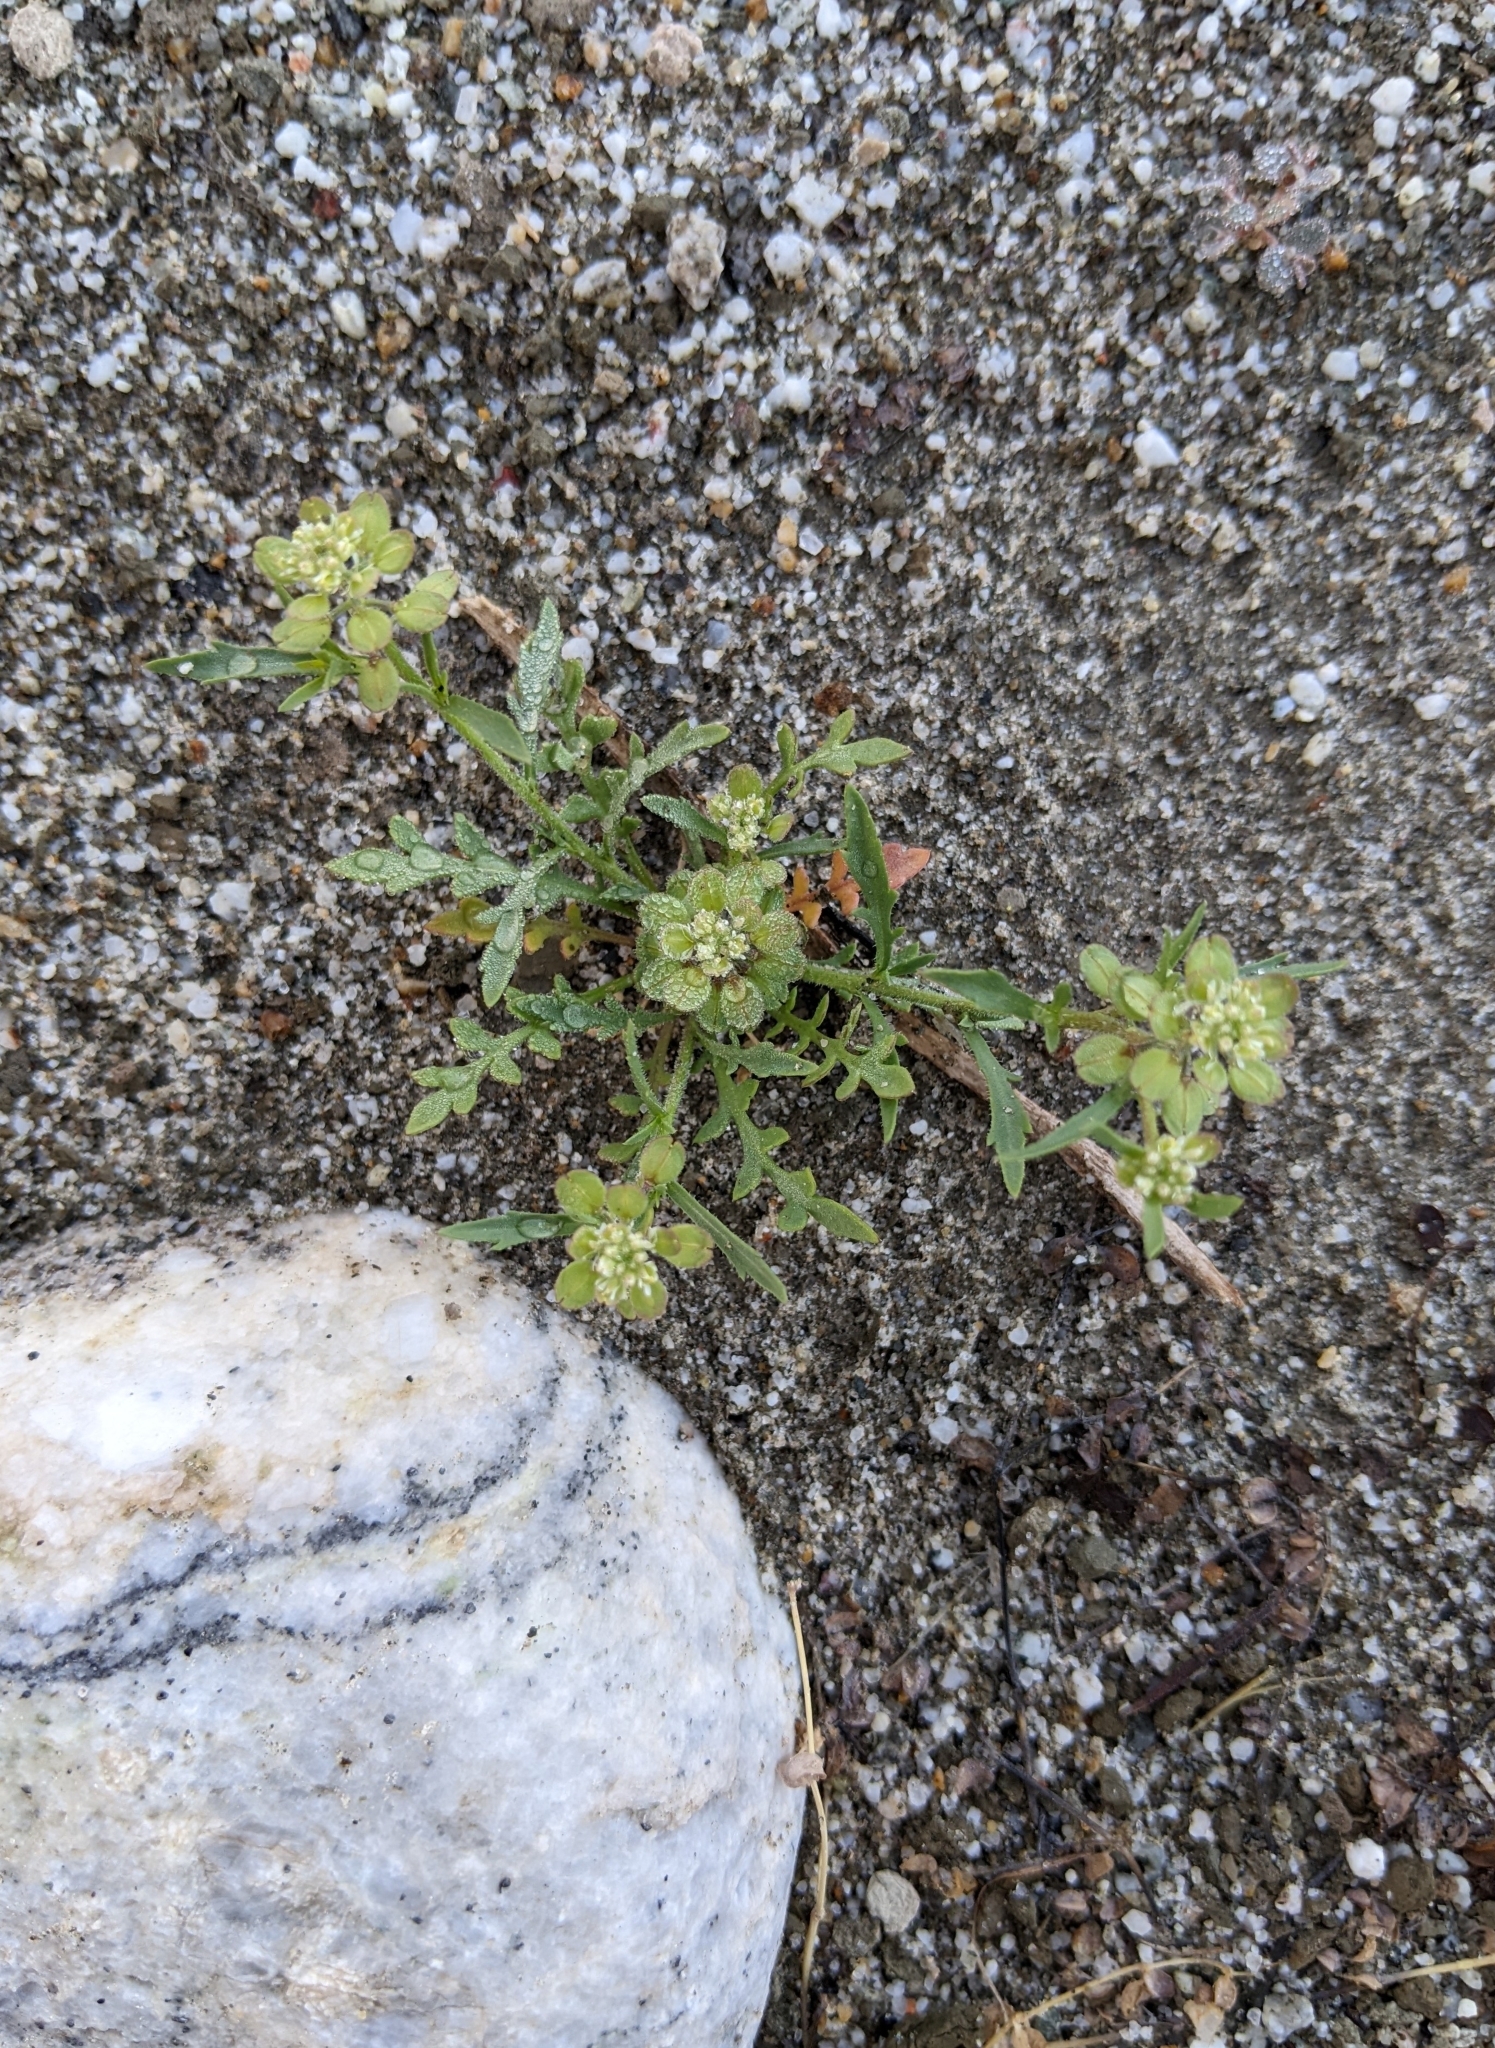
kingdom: Plantae
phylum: Tracheophyta
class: Magnoliopsida
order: Brassicales
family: Brassicaceae
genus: Lepidium
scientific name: Lepidium lasiocarpum
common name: Hairy-pod pepperwort
